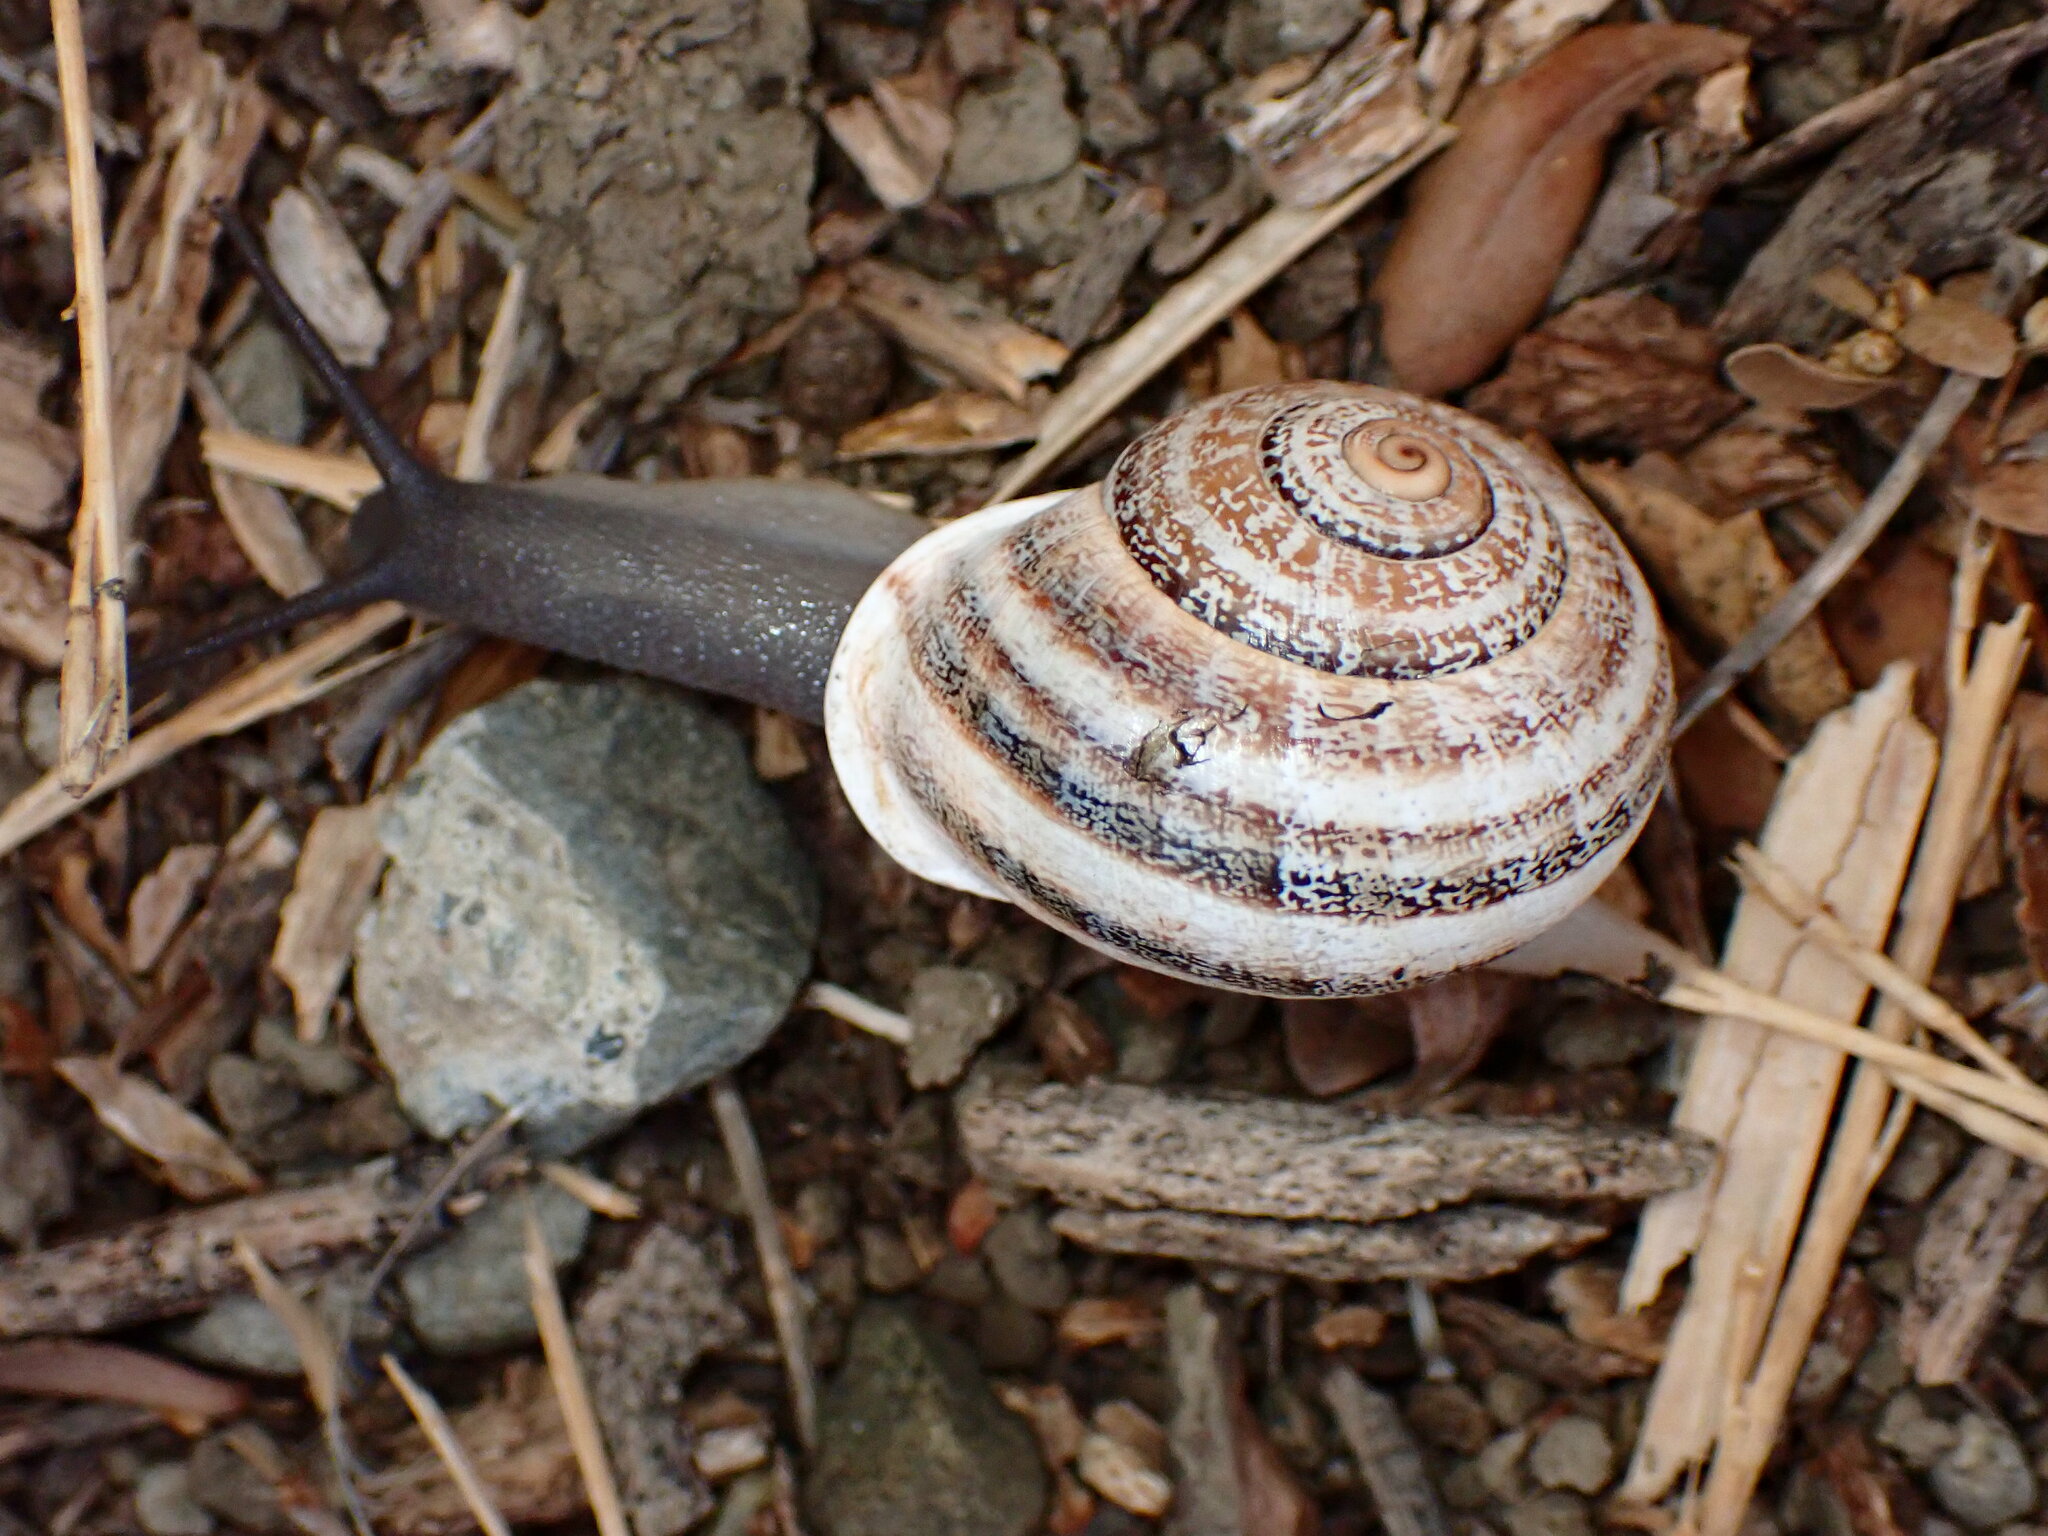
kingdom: Animalia
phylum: Mollusca
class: Gastropoda
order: Stylommatophora
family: Helicidae
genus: Otala
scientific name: Otala lactea
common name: Milk snail
